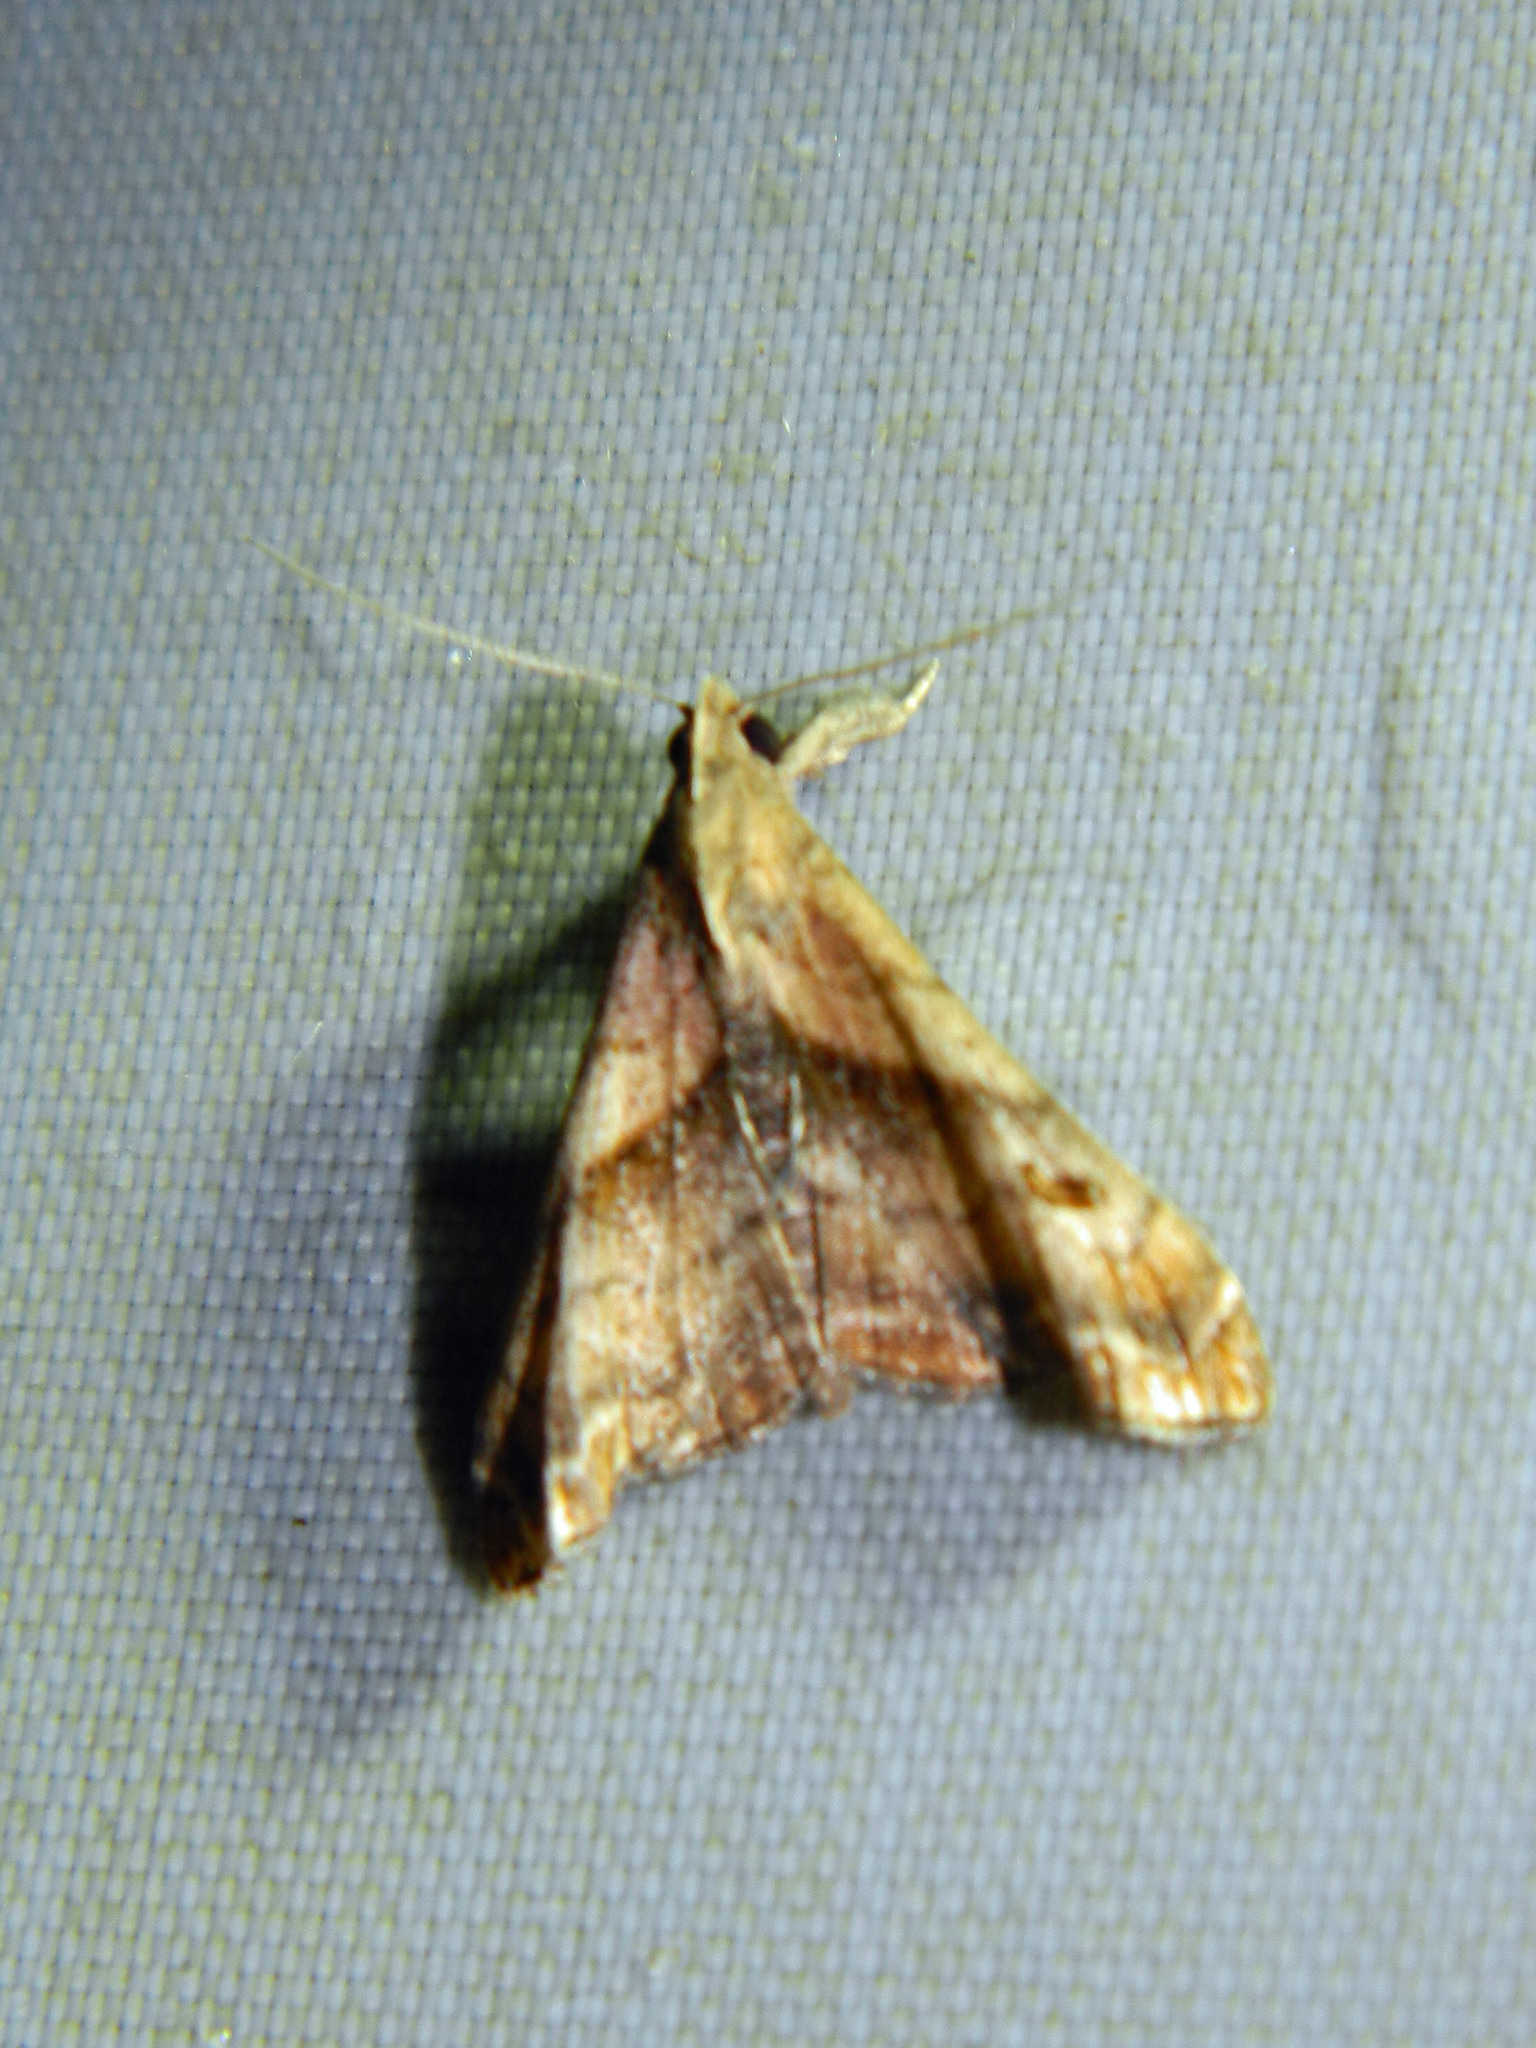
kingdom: Animalia
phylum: Arthropoda
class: Insecta
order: Lepidoptera
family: Erebidae
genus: Palthis
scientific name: Palthis angulalis
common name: Dark-spotted palthis moth
